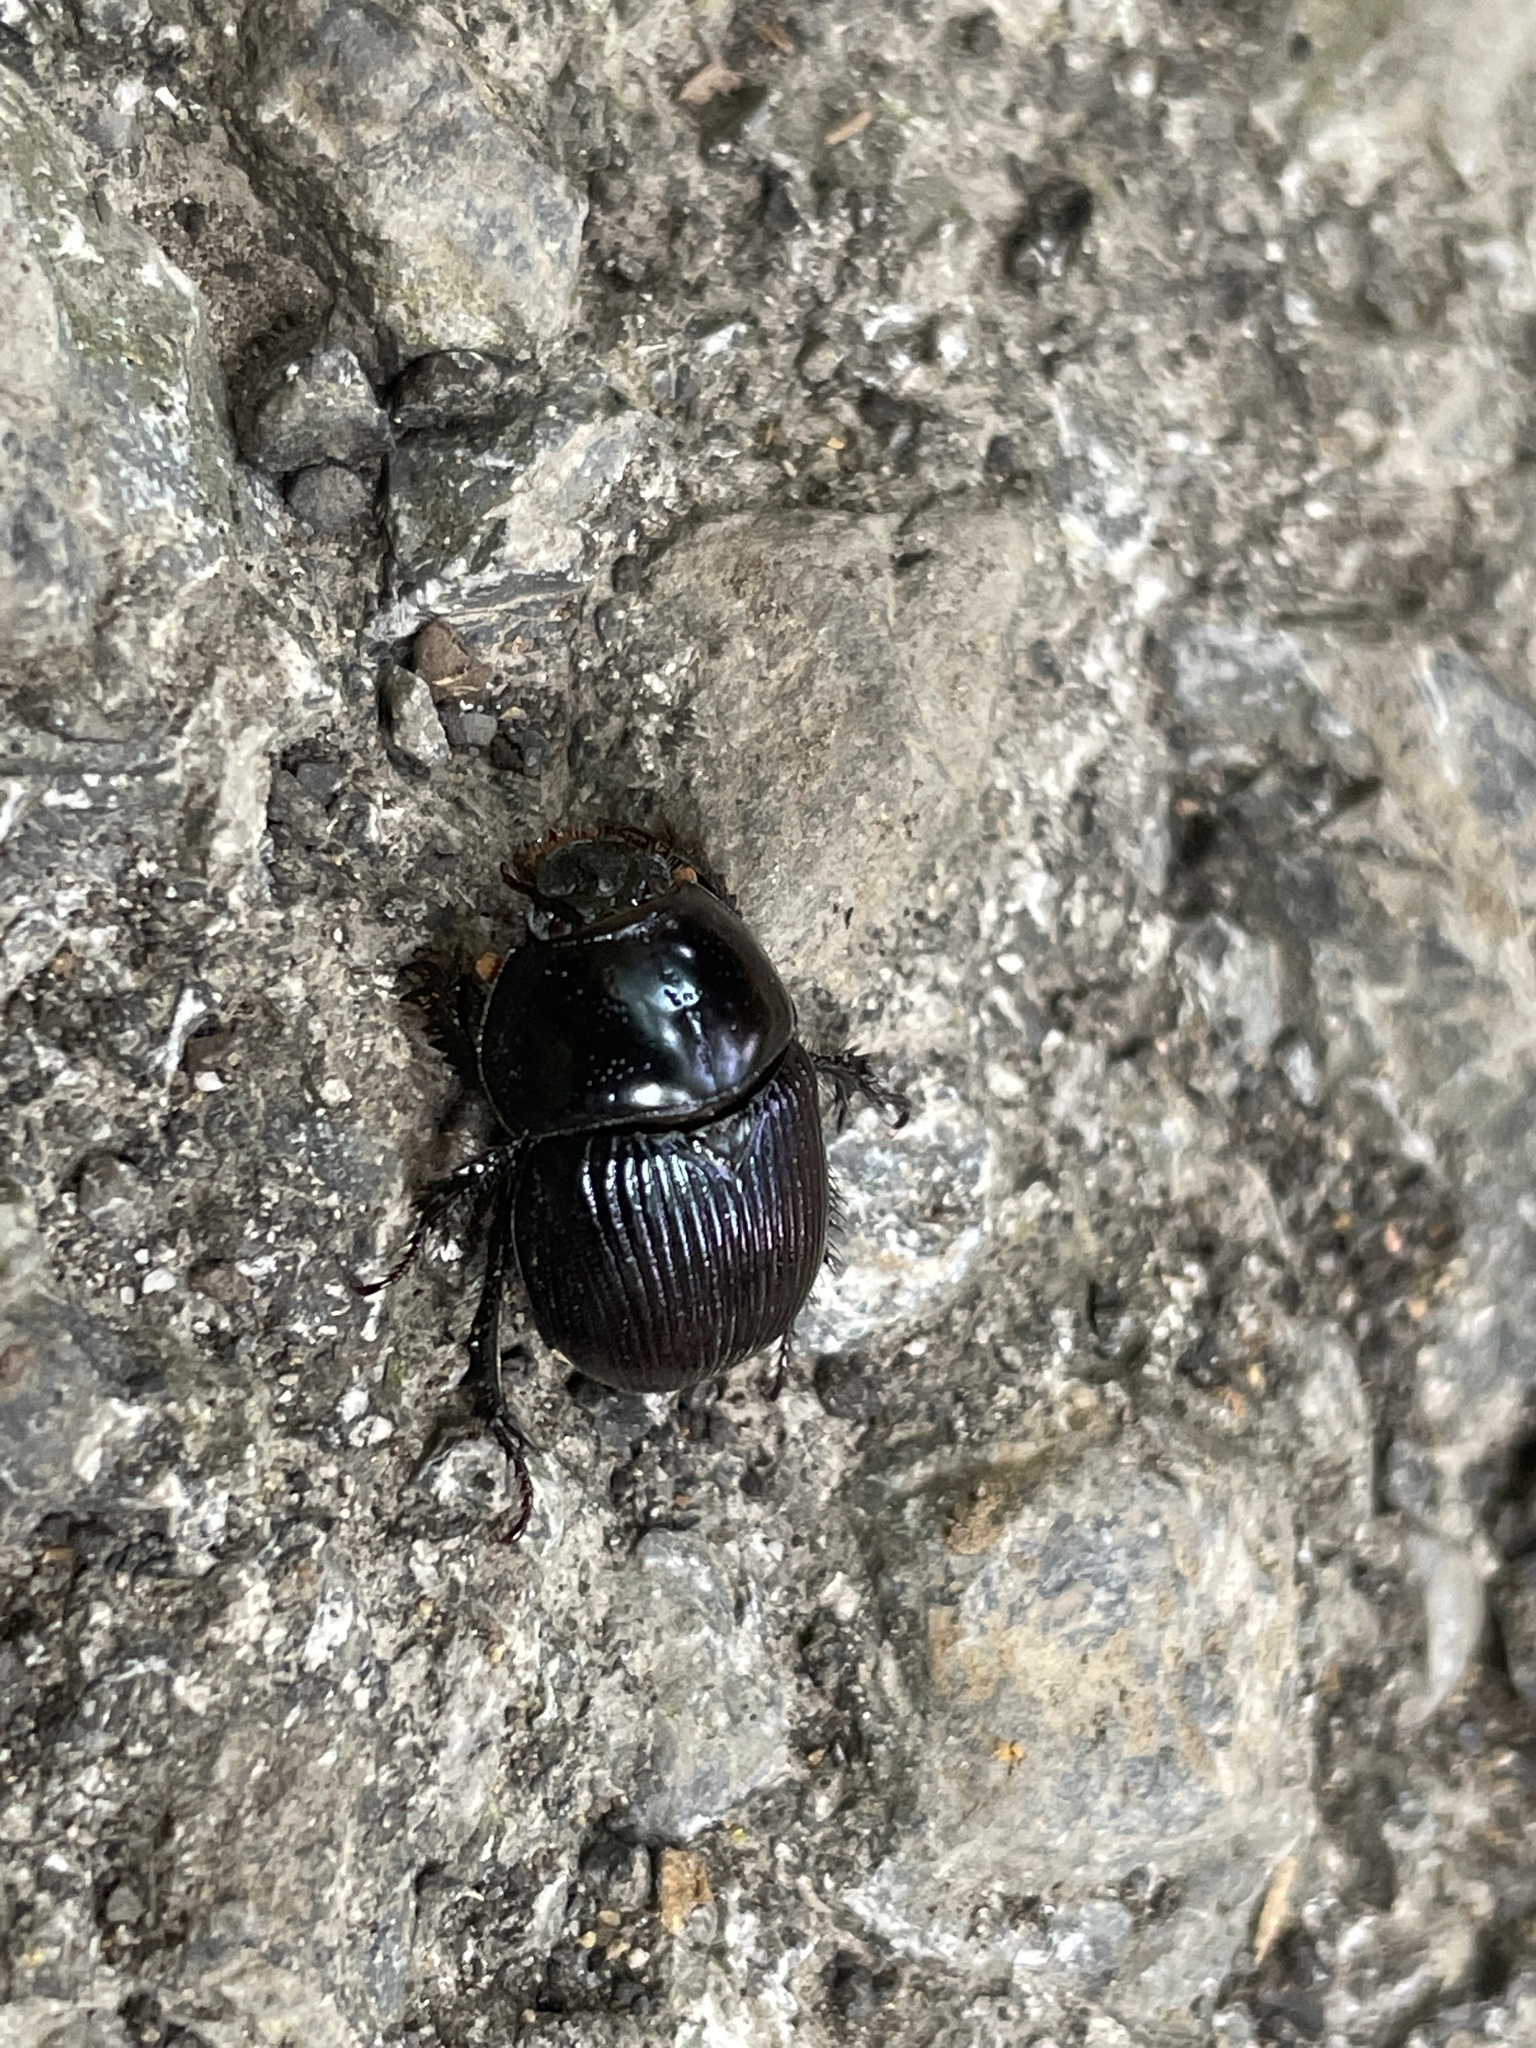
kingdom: Animalia
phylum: Arthropoda
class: Insecta
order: Coleoptera
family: Geotrupidae
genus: Anoplotrupes
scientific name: Anoplotrupes balyi
